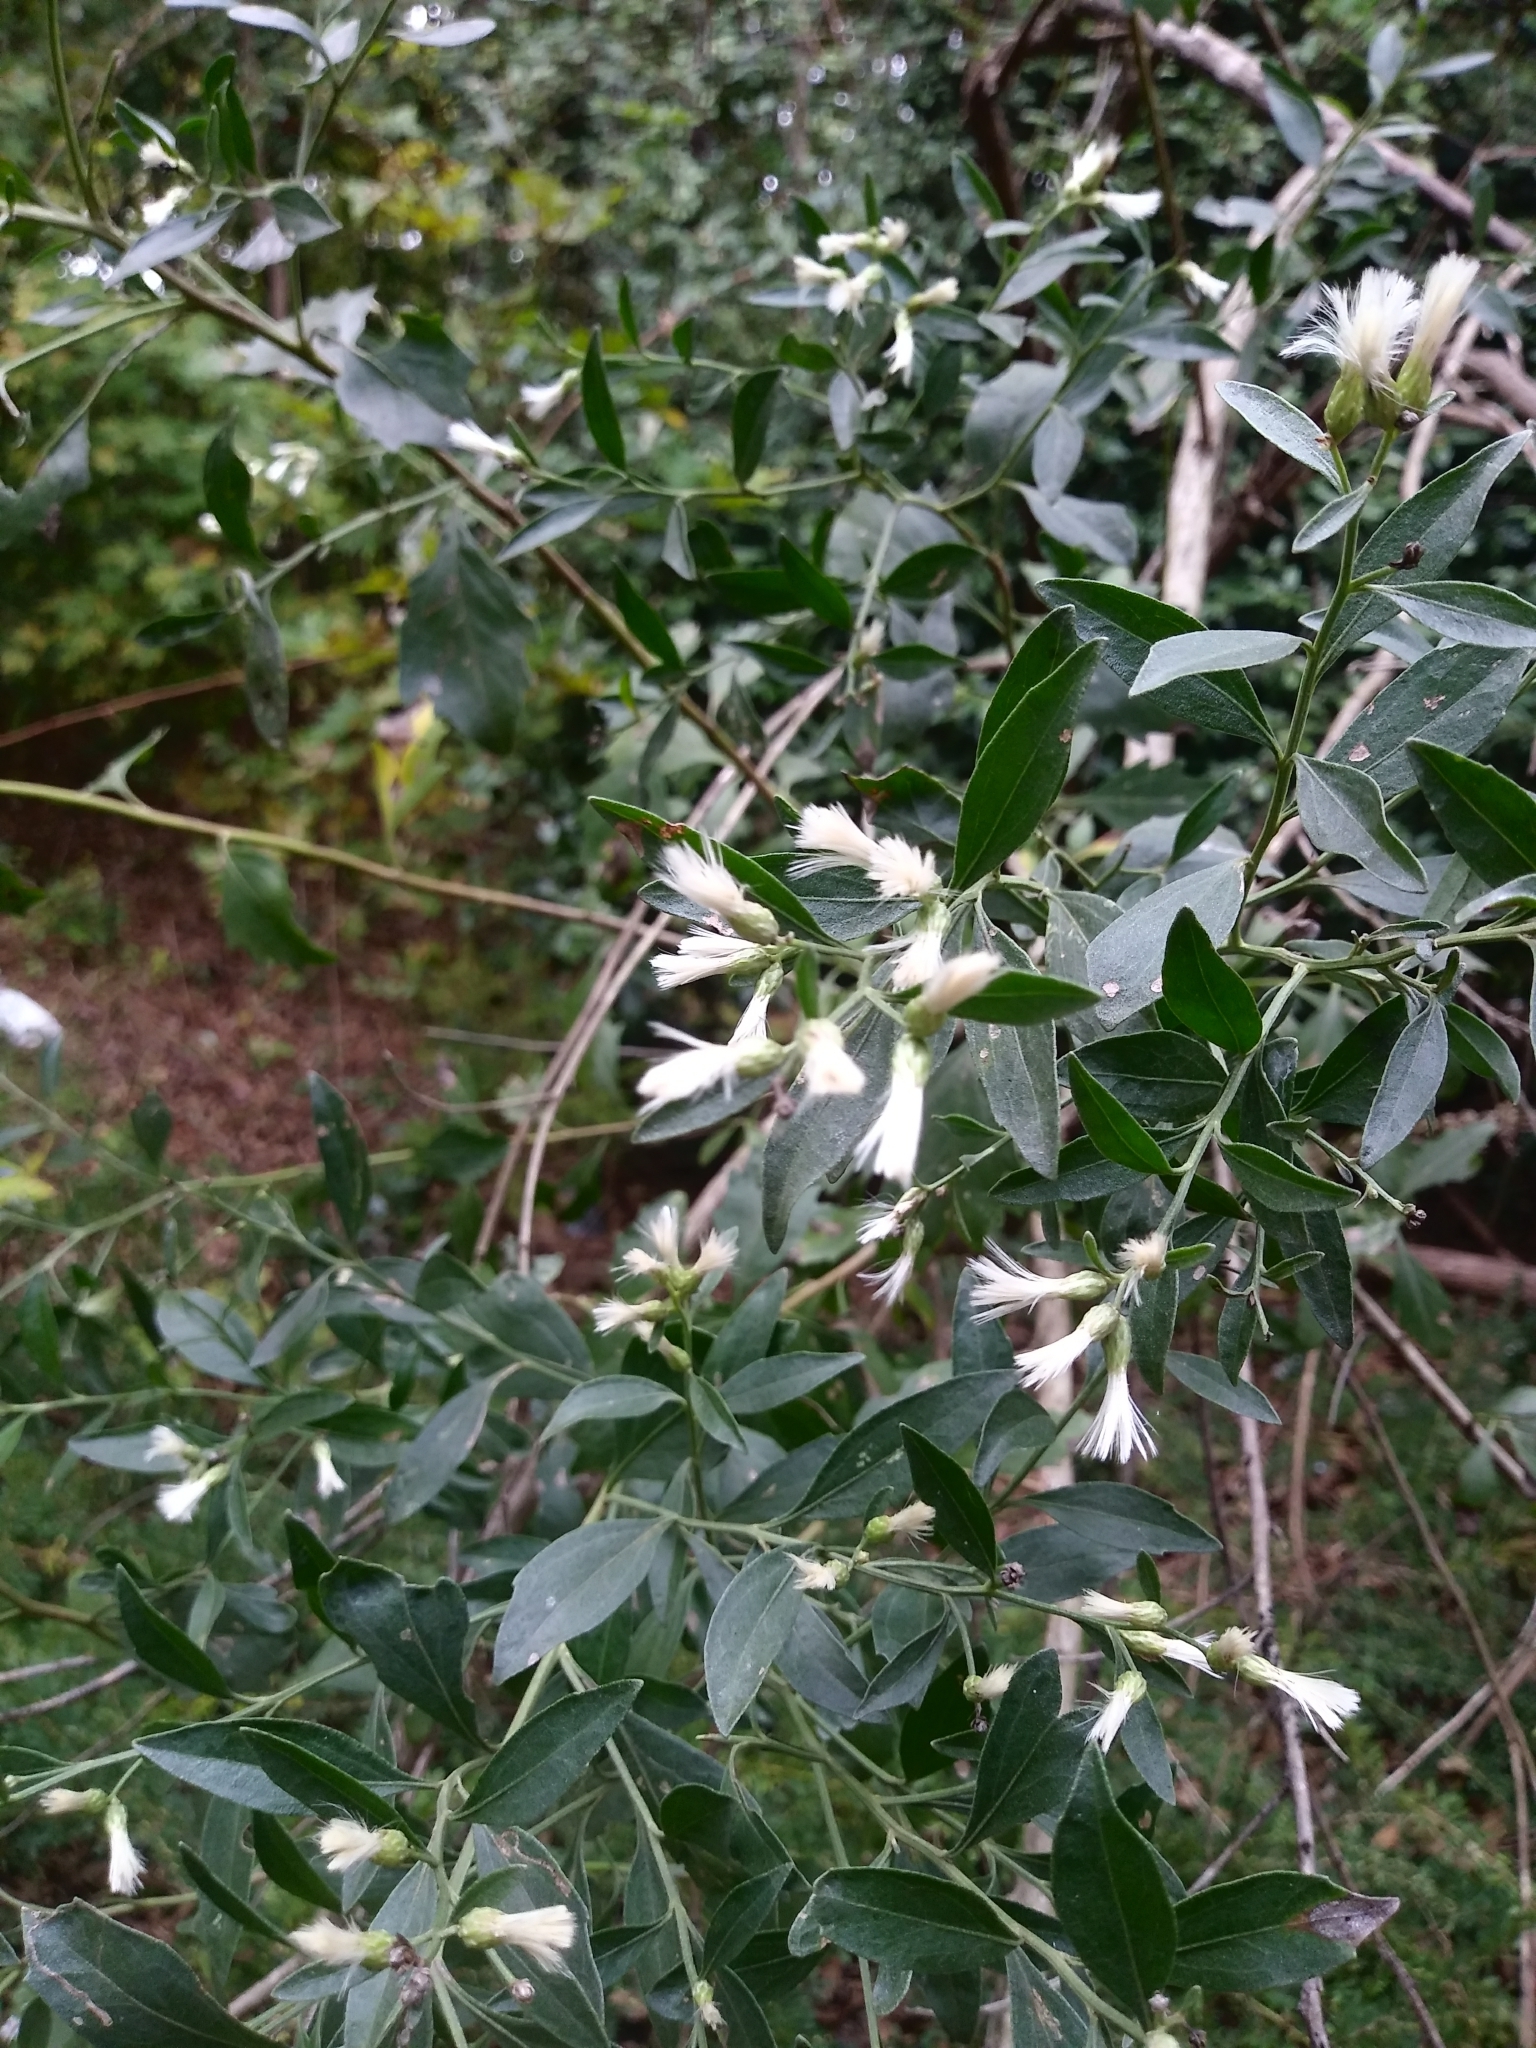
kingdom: Plantae
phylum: Tracheophyta
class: Magnoliopsida
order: Asterales
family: Asteraceae
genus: Baccharis
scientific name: Baccharis halimifolia
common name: Eastern baccharis
